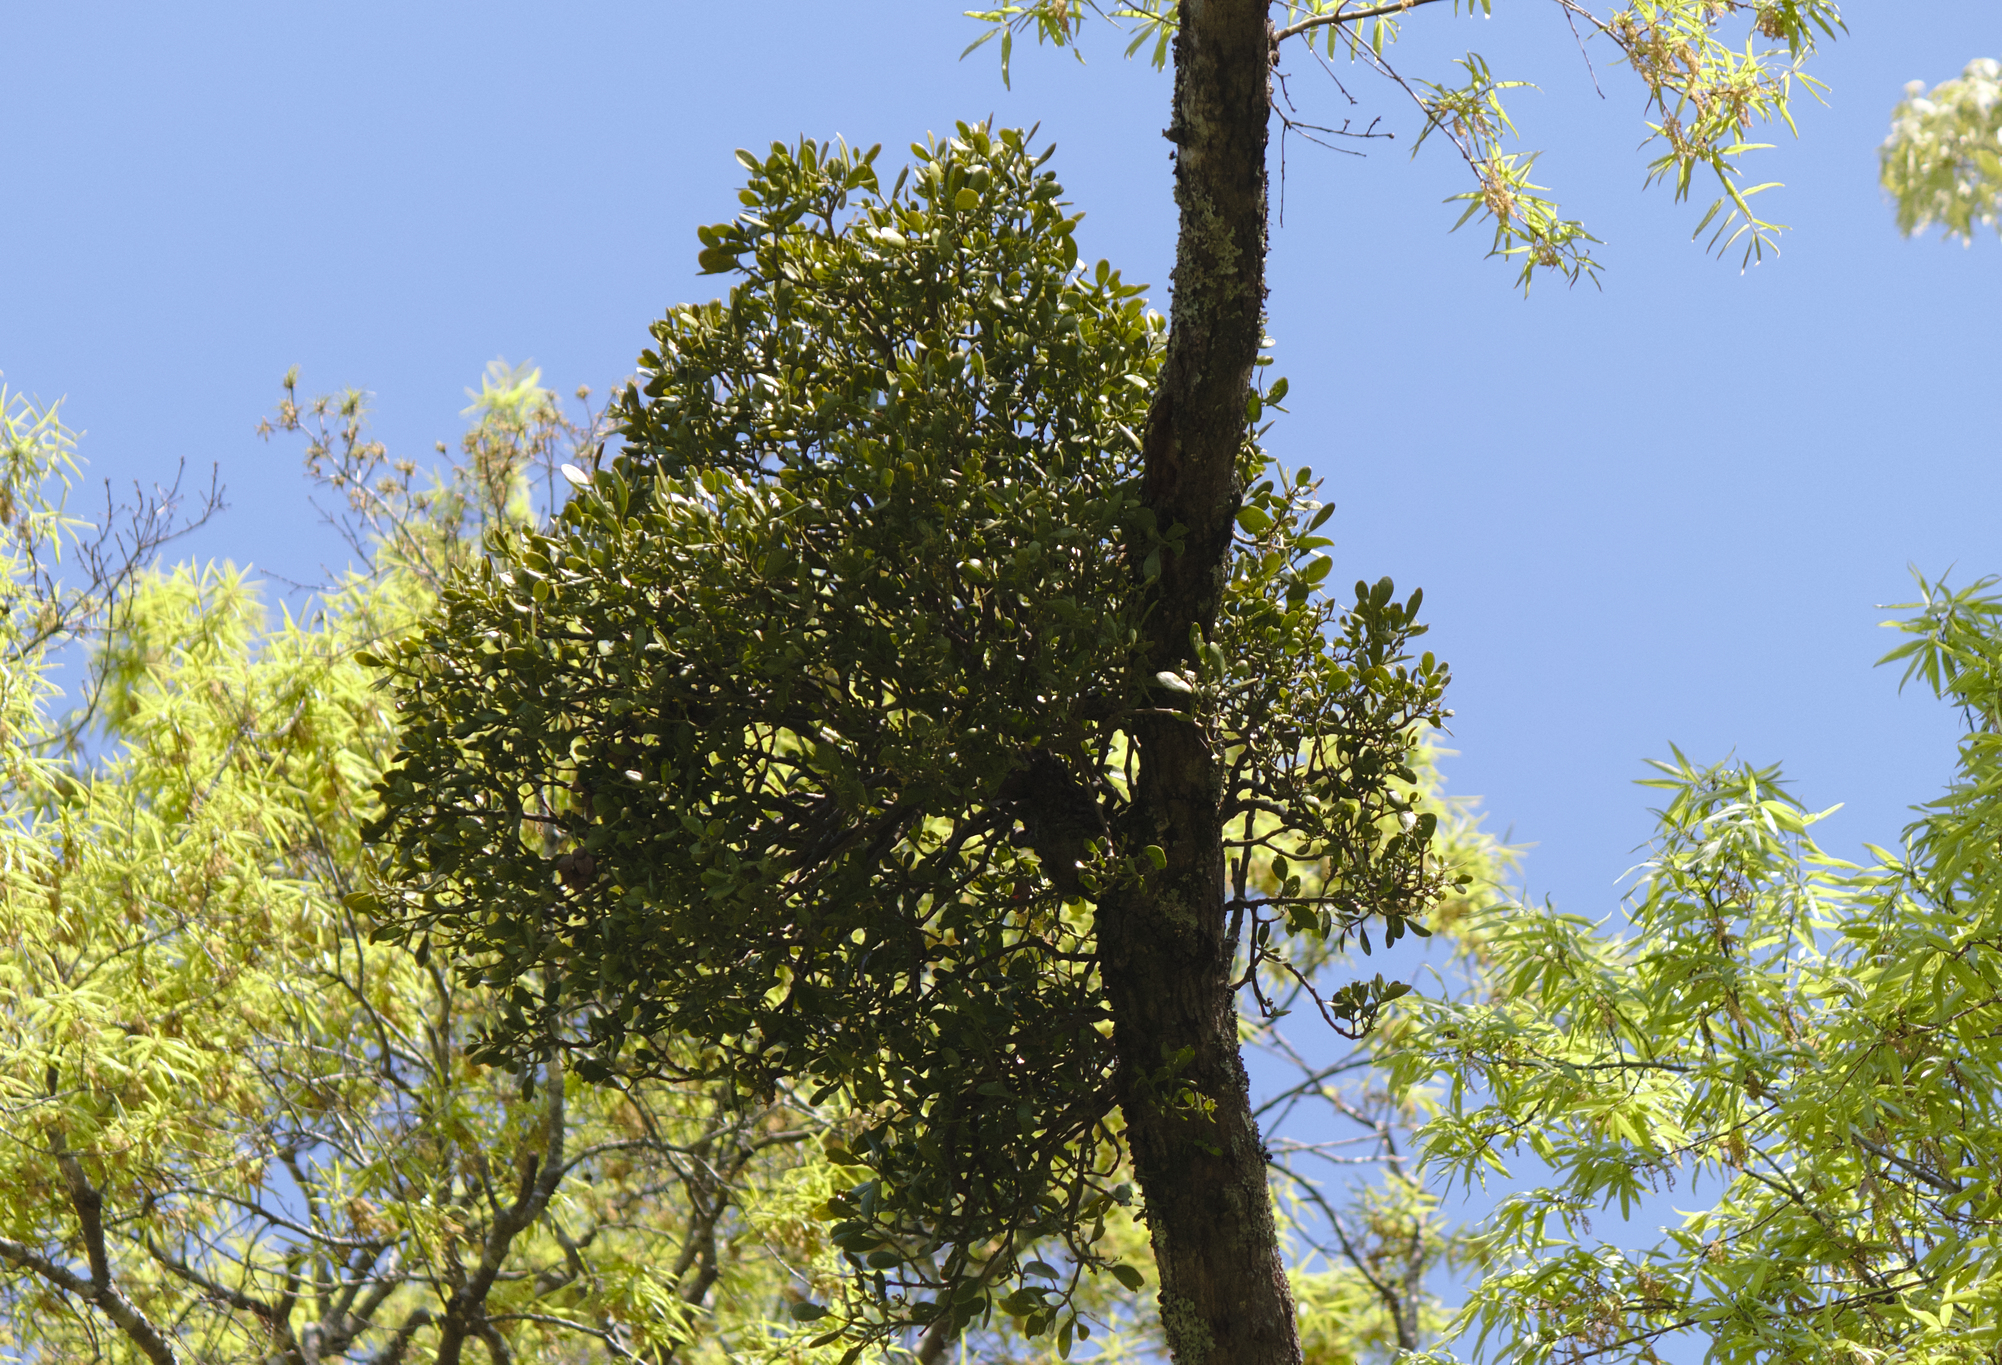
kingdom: Plantae
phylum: Tracheophyta
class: Magnoliopsida
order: Santalales
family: Viscaceae
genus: Phoradendron
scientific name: Phoradendron leucarpum
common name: Pacific mistletoe
